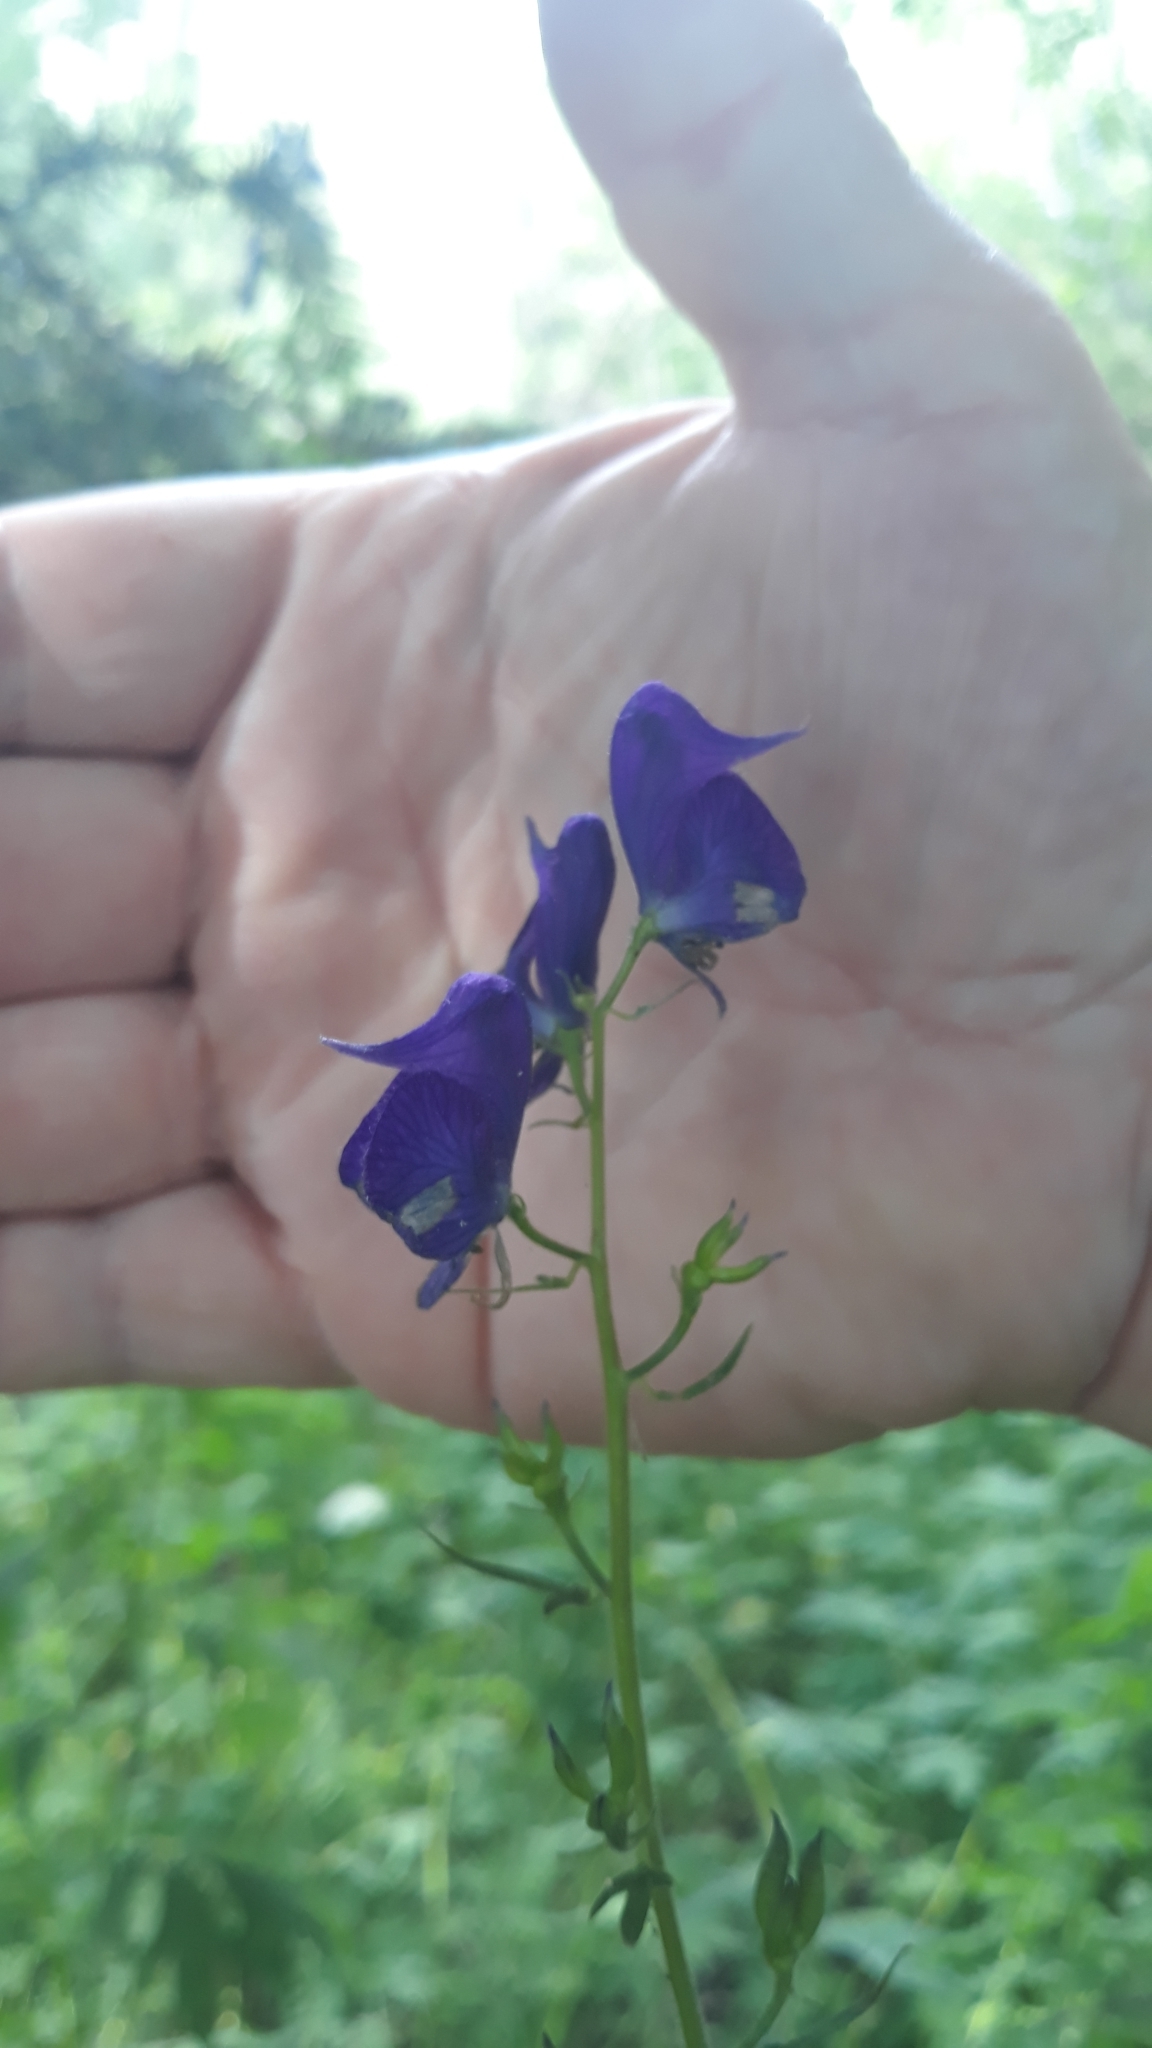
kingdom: Plantae
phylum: Tracheophyta
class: Magnoliopsida
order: Ranunculales
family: Ranunculaceae
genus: Aconitum
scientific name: Aconitum columbianum
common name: Columbia aconite
